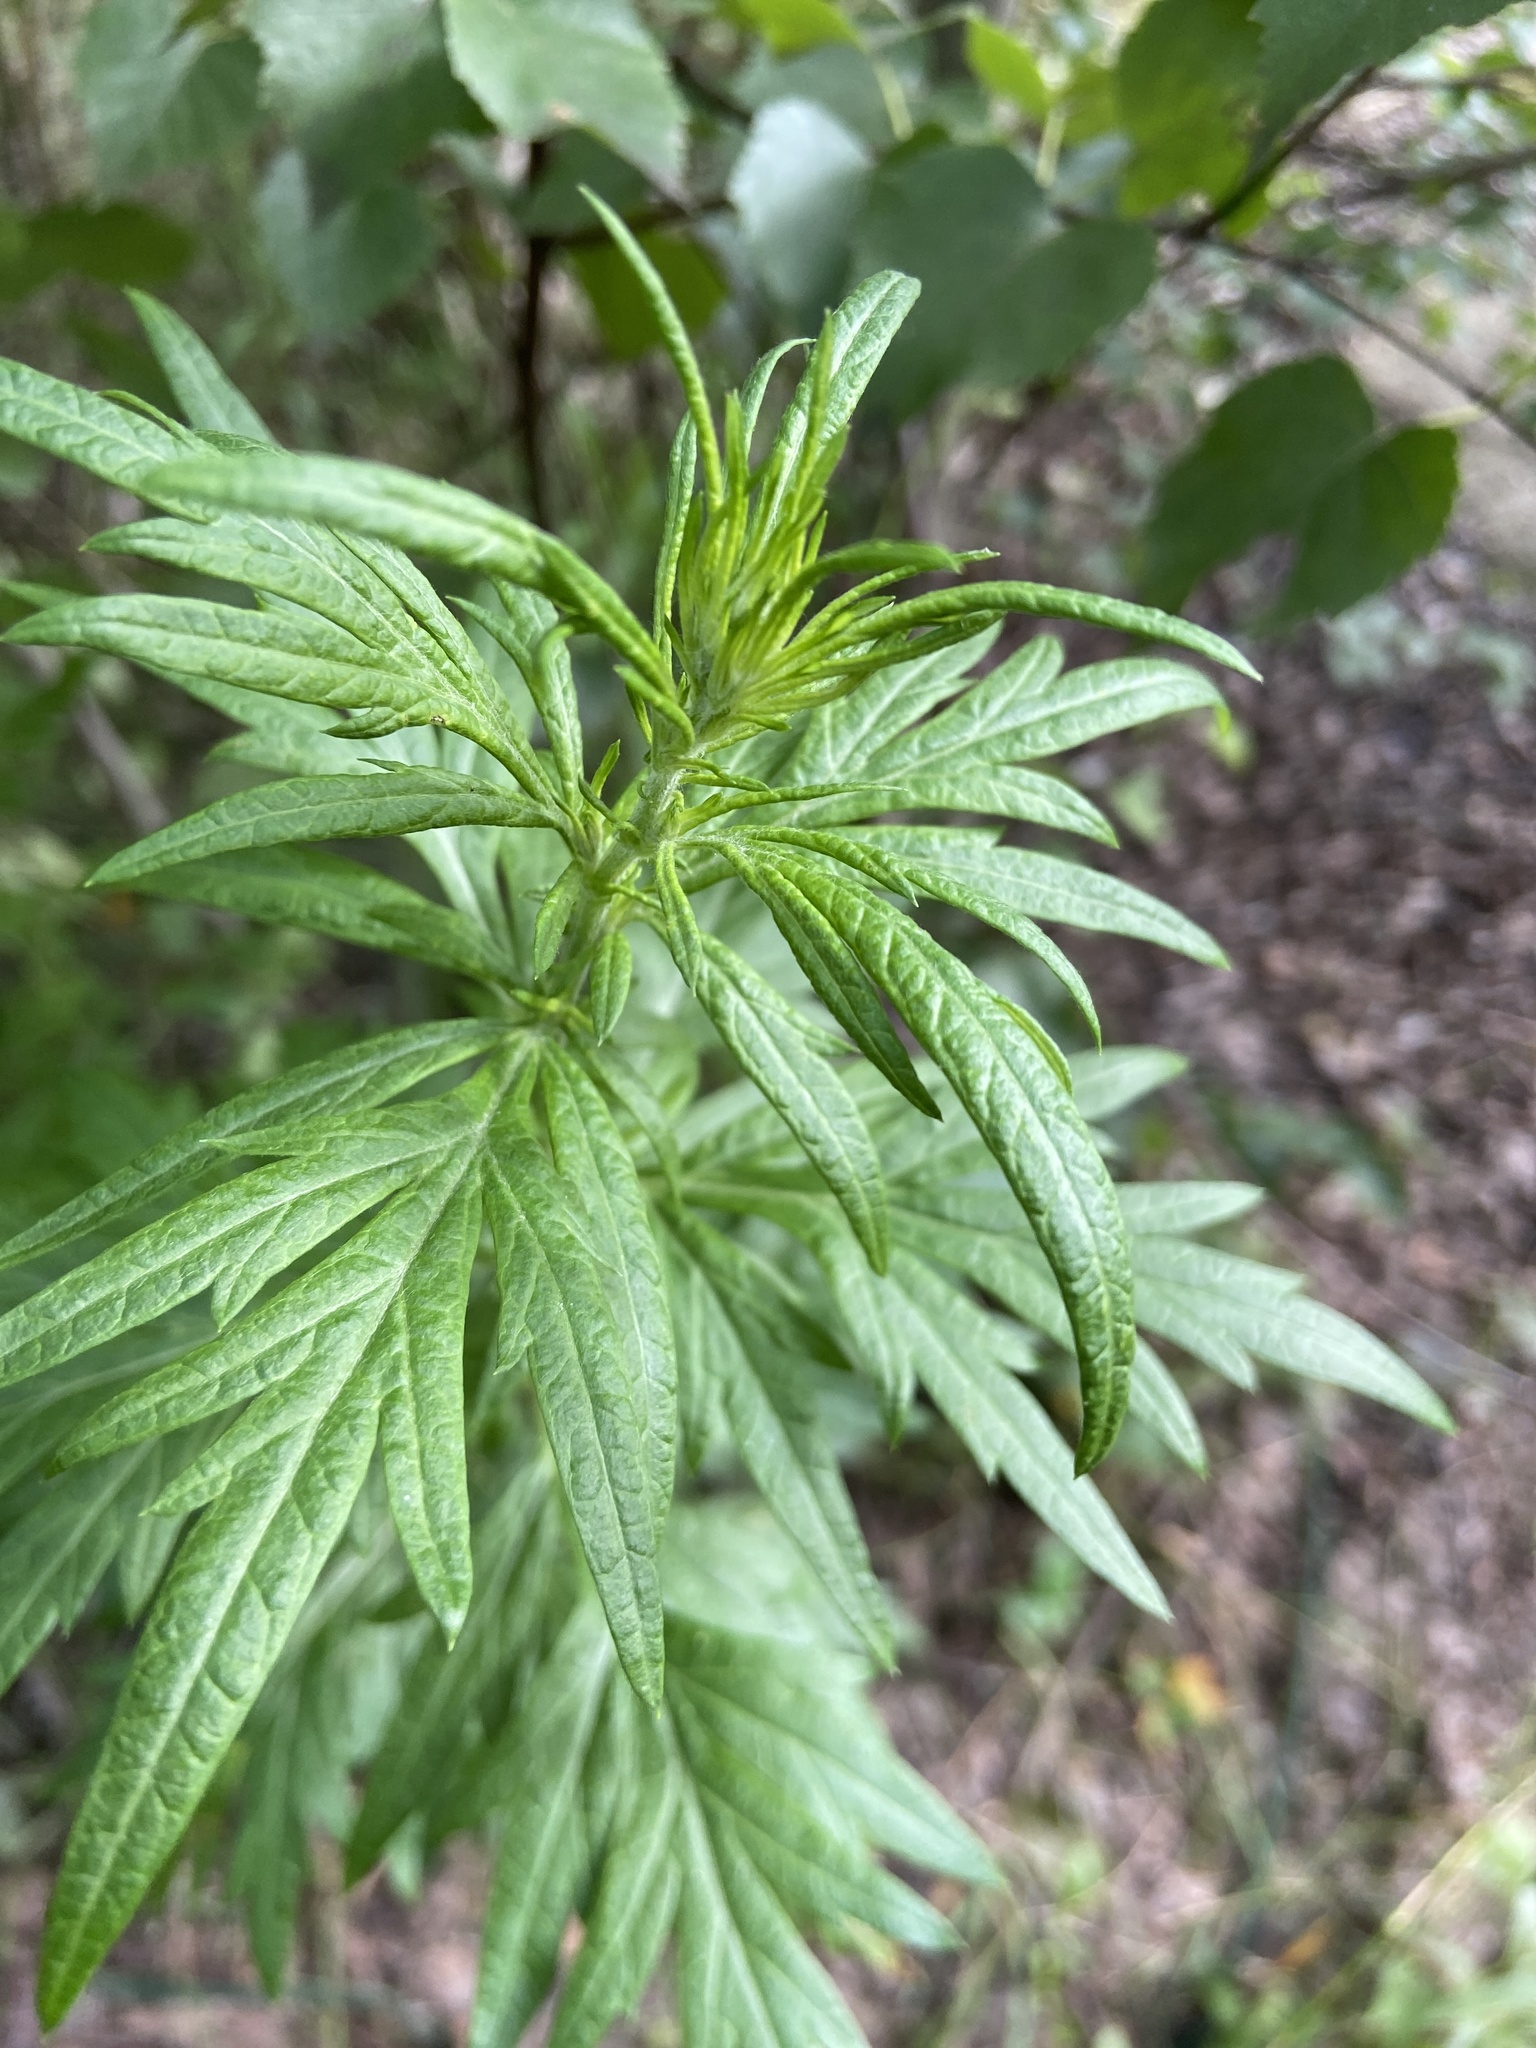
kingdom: Plantae
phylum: Tracheophyta
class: Magnoliopsida
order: Asterales
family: Asteraceae
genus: Artemisia
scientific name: Artemisia vulgaris
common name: Mugwort
